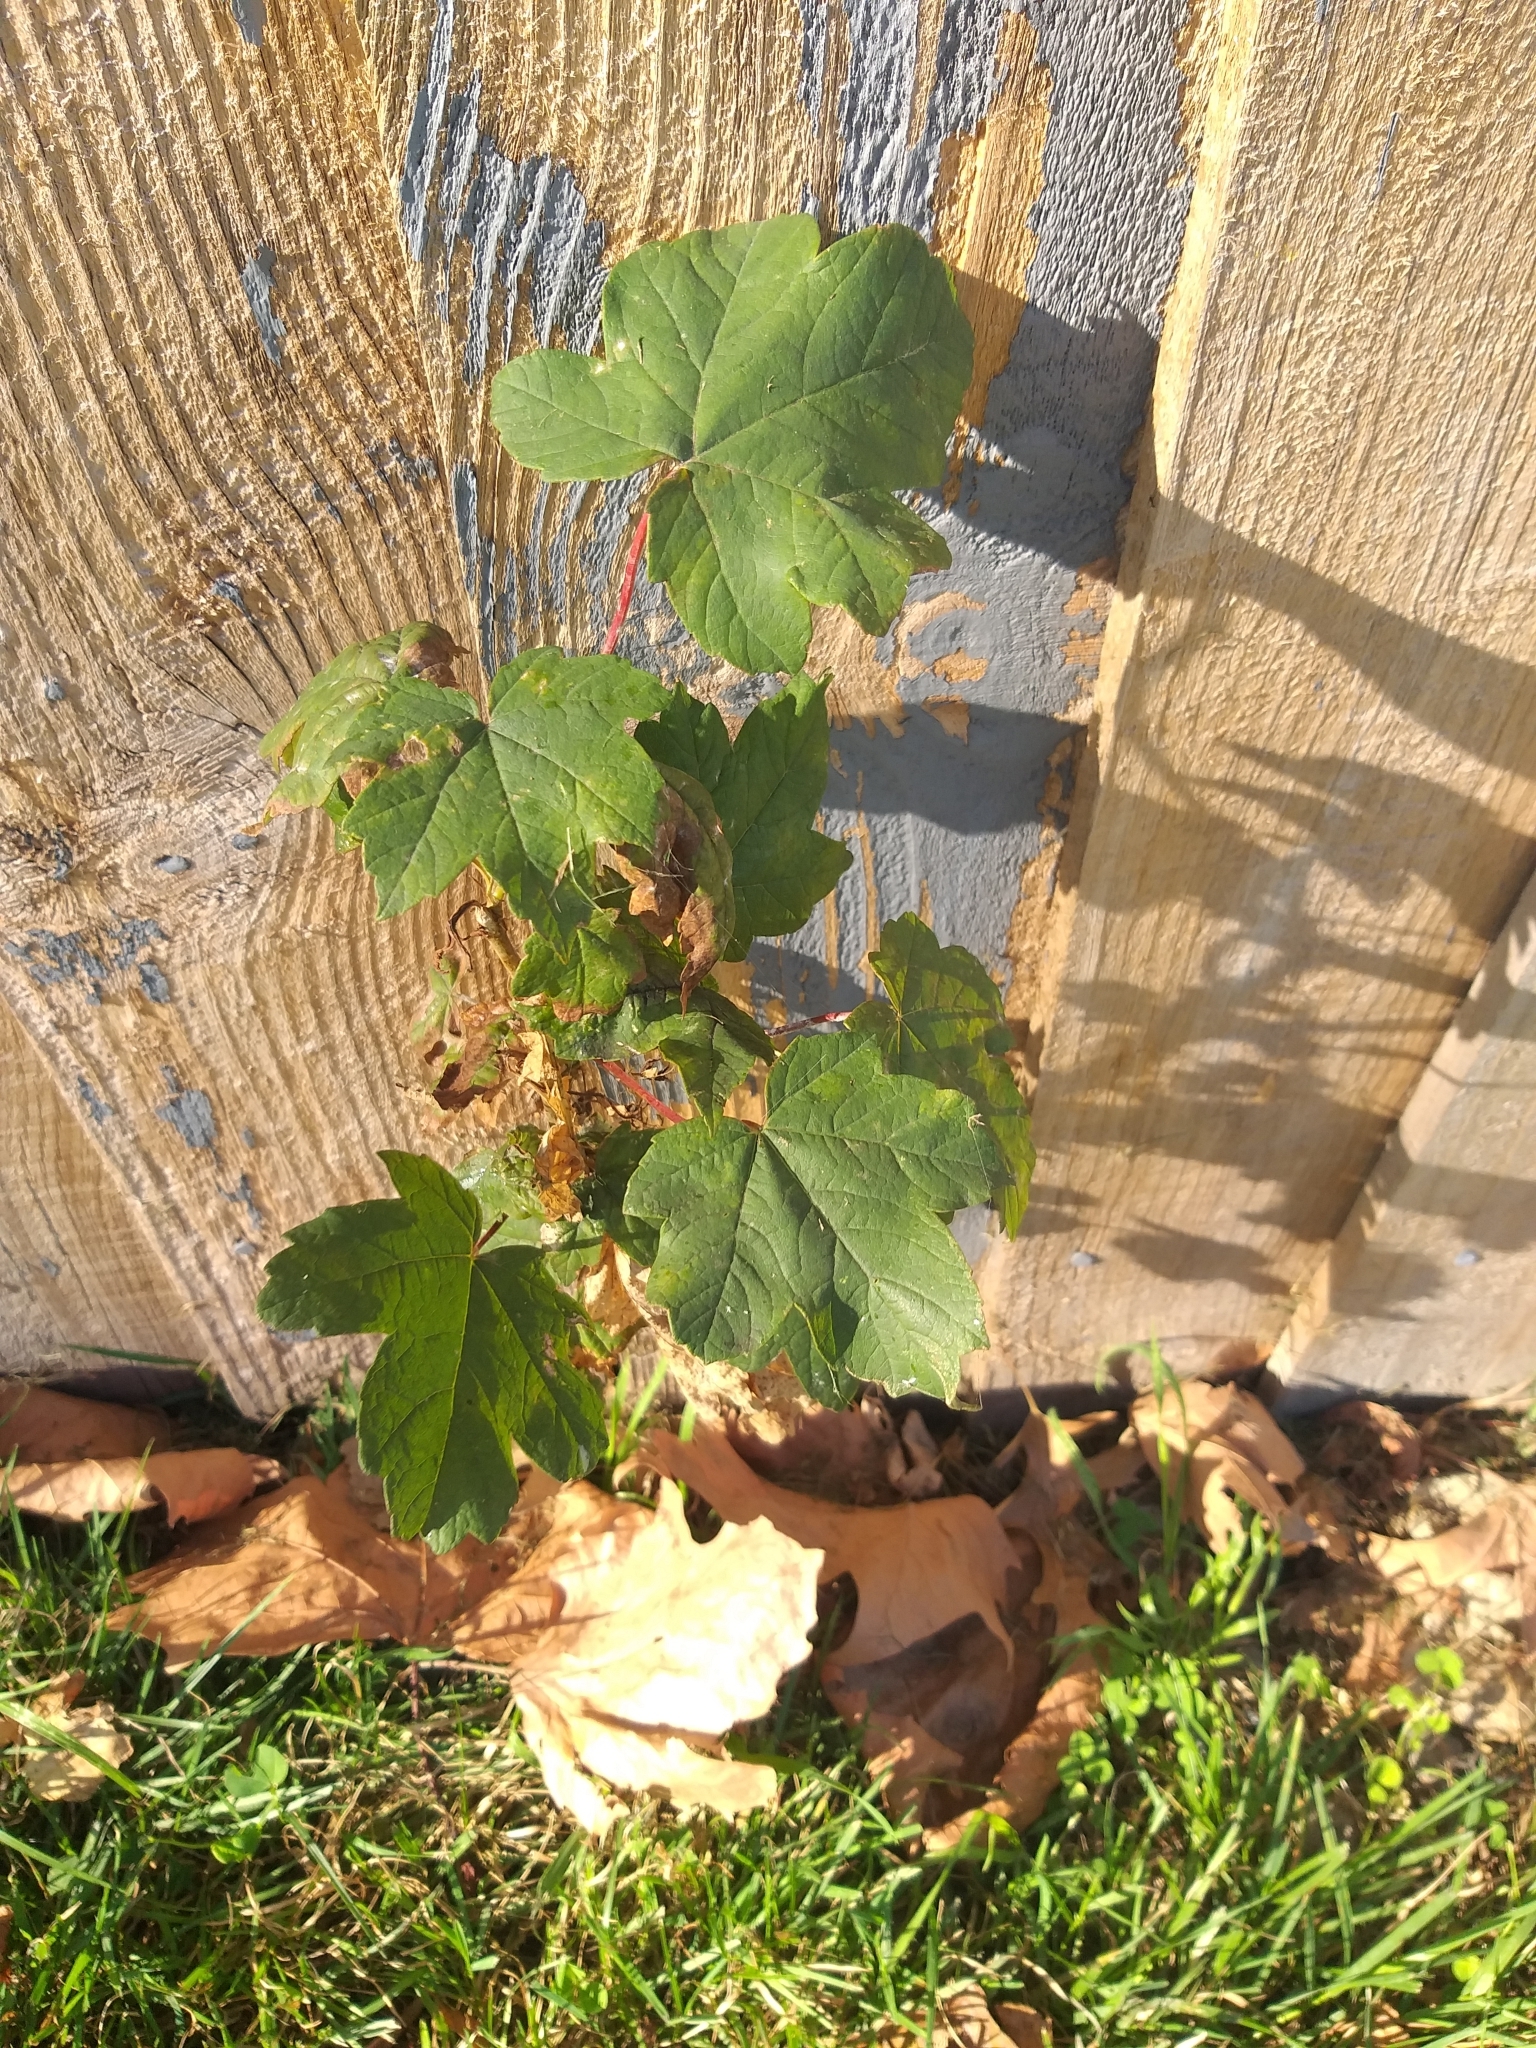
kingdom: Plantae
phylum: Tracheophyta
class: Magnoliopsida
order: Sapindales
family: Sapindaceae
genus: Acer
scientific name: Acer pseudoplatanus
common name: Sycamore
